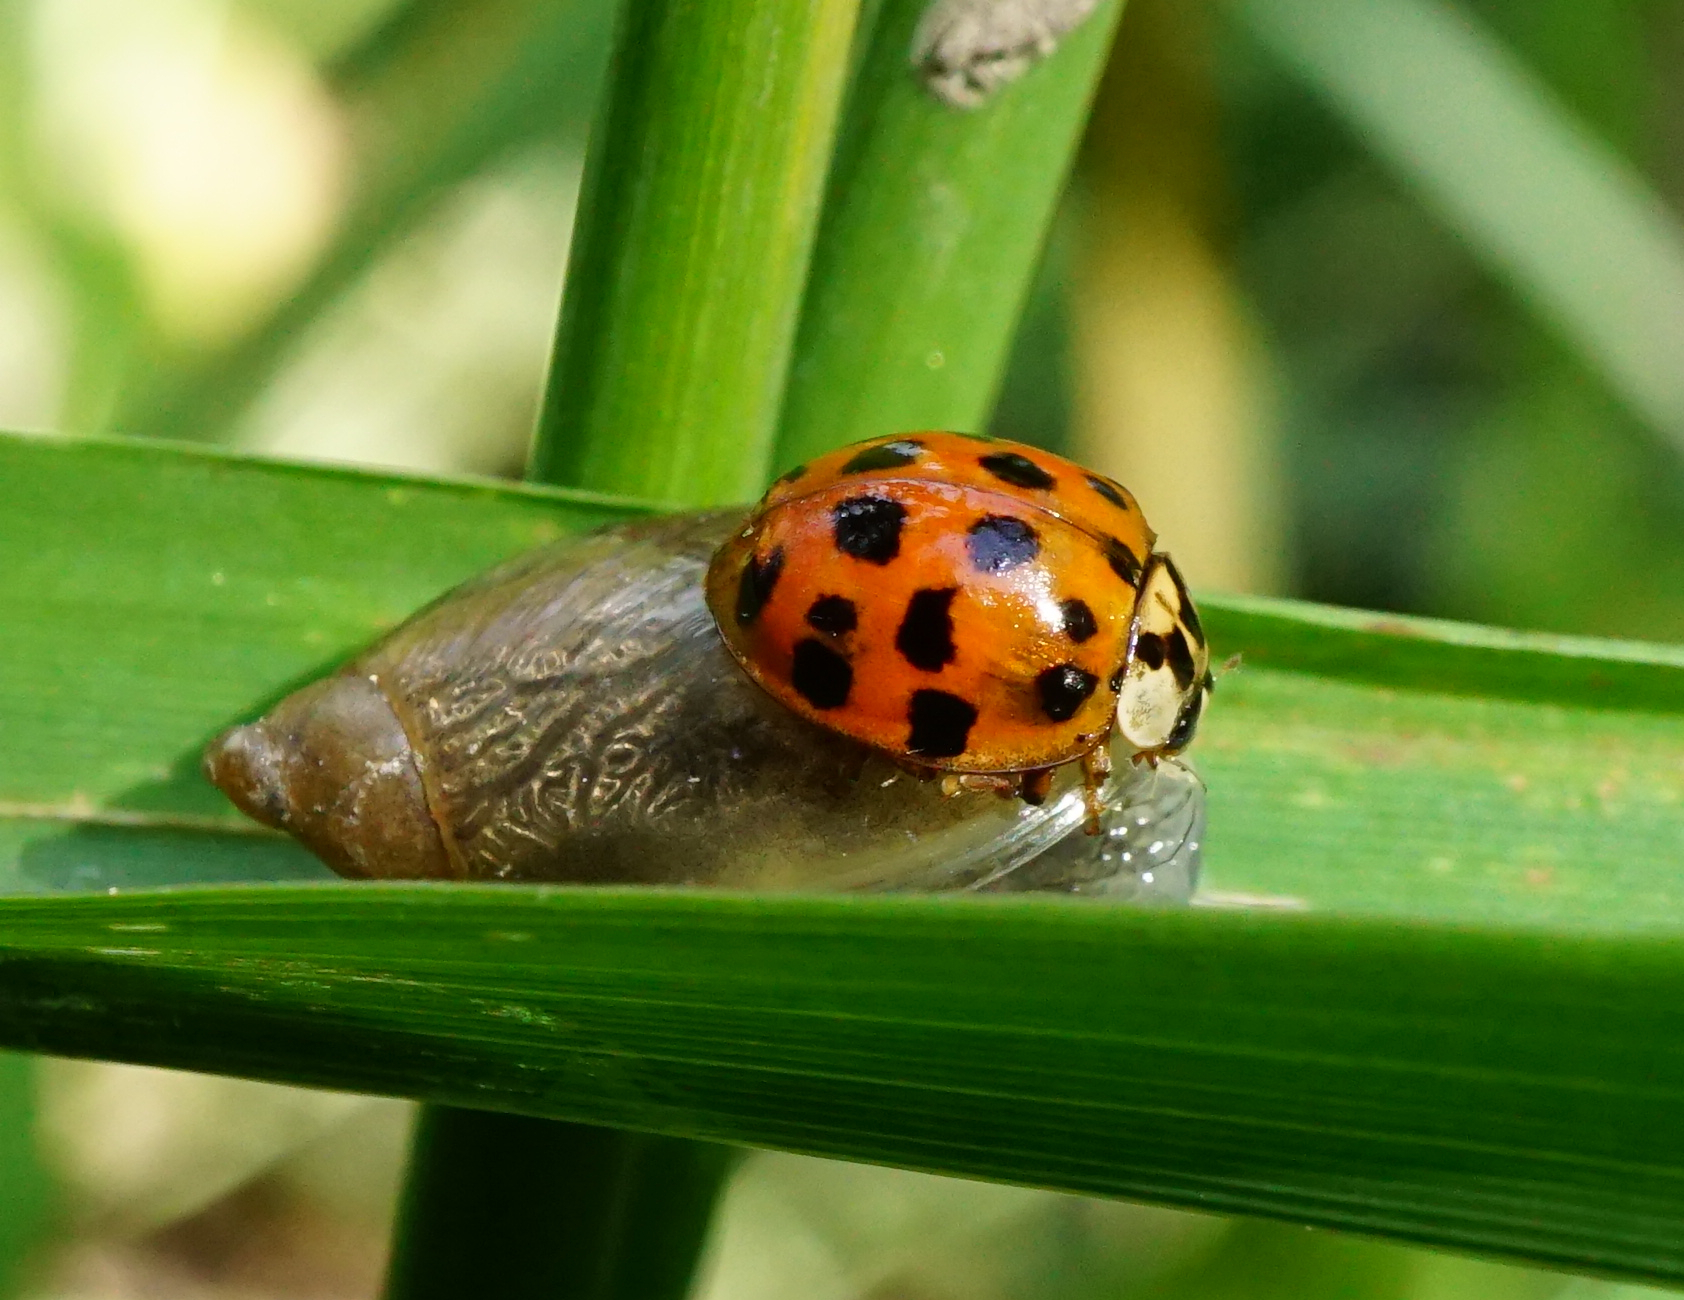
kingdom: Animalia
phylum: Arthropoda
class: Insecta
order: Coleoptera
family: Coccinellidae
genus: Harmonia
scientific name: Harmonia axyridis
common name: Harlequin ladybird
